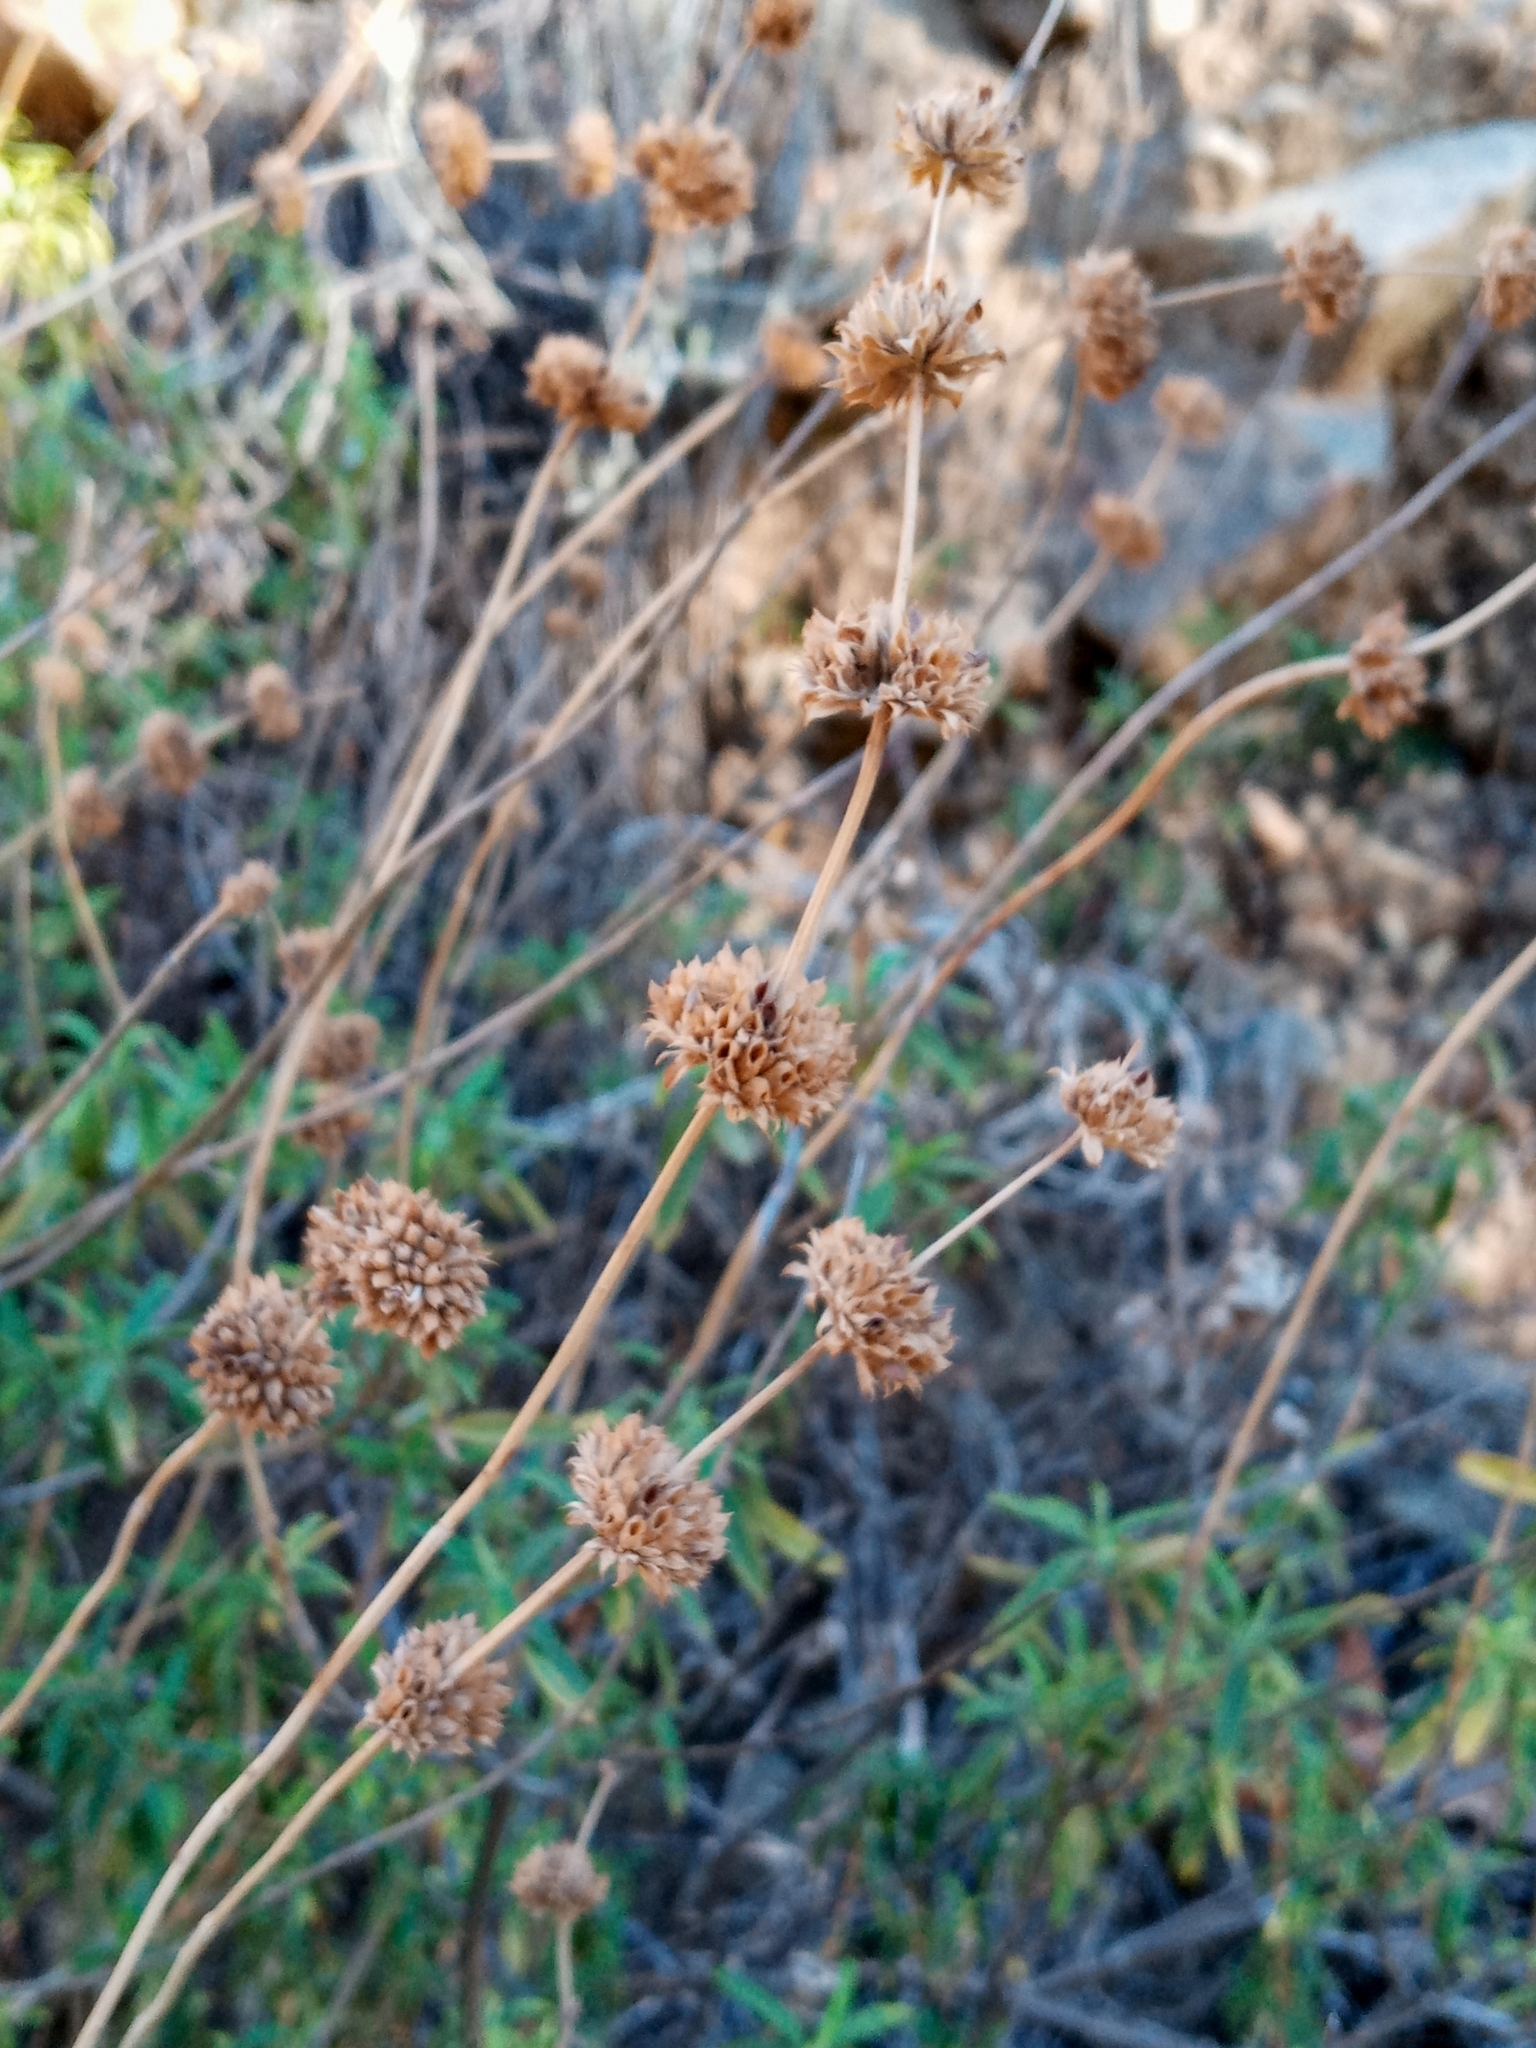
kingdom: Plantae
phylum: Tracheophyta
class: Magnoliopsida
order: Lamiales
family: Lamiaceae
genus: Salvia
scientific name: Salvia mellifera
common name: Black sage
